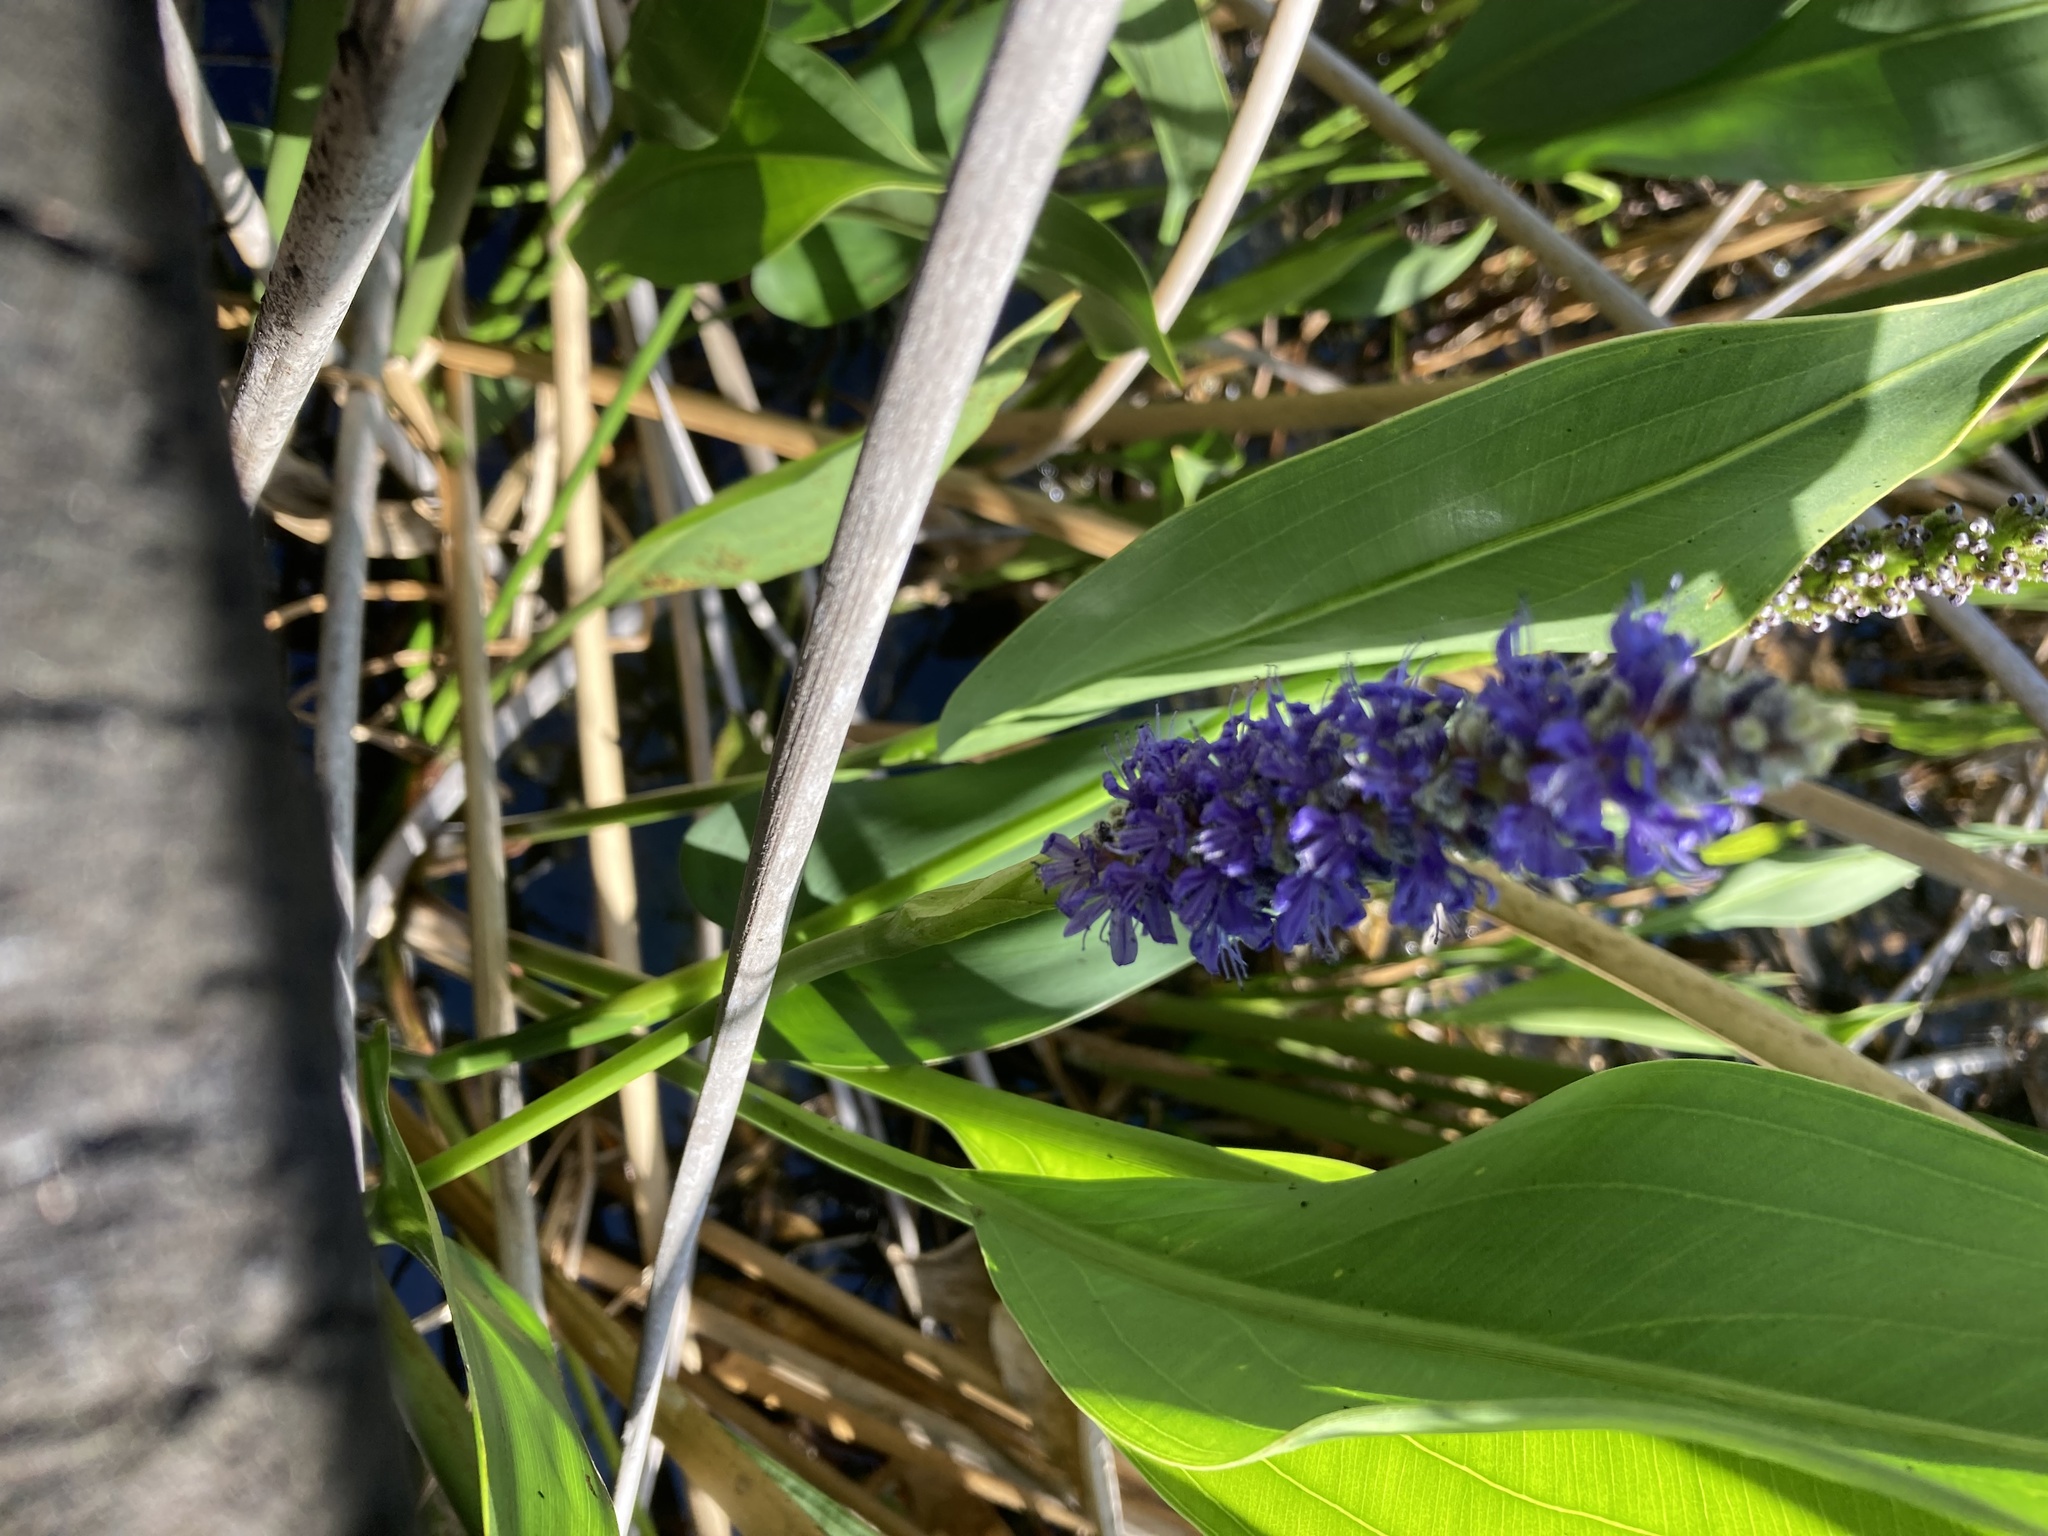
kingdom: Plantae
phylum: Tracheophyta
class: Liliopsida
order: Commelinales
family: Pontederiaceae
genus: Pontederia
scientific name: Pontederia cordata
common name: Pickerelweed
